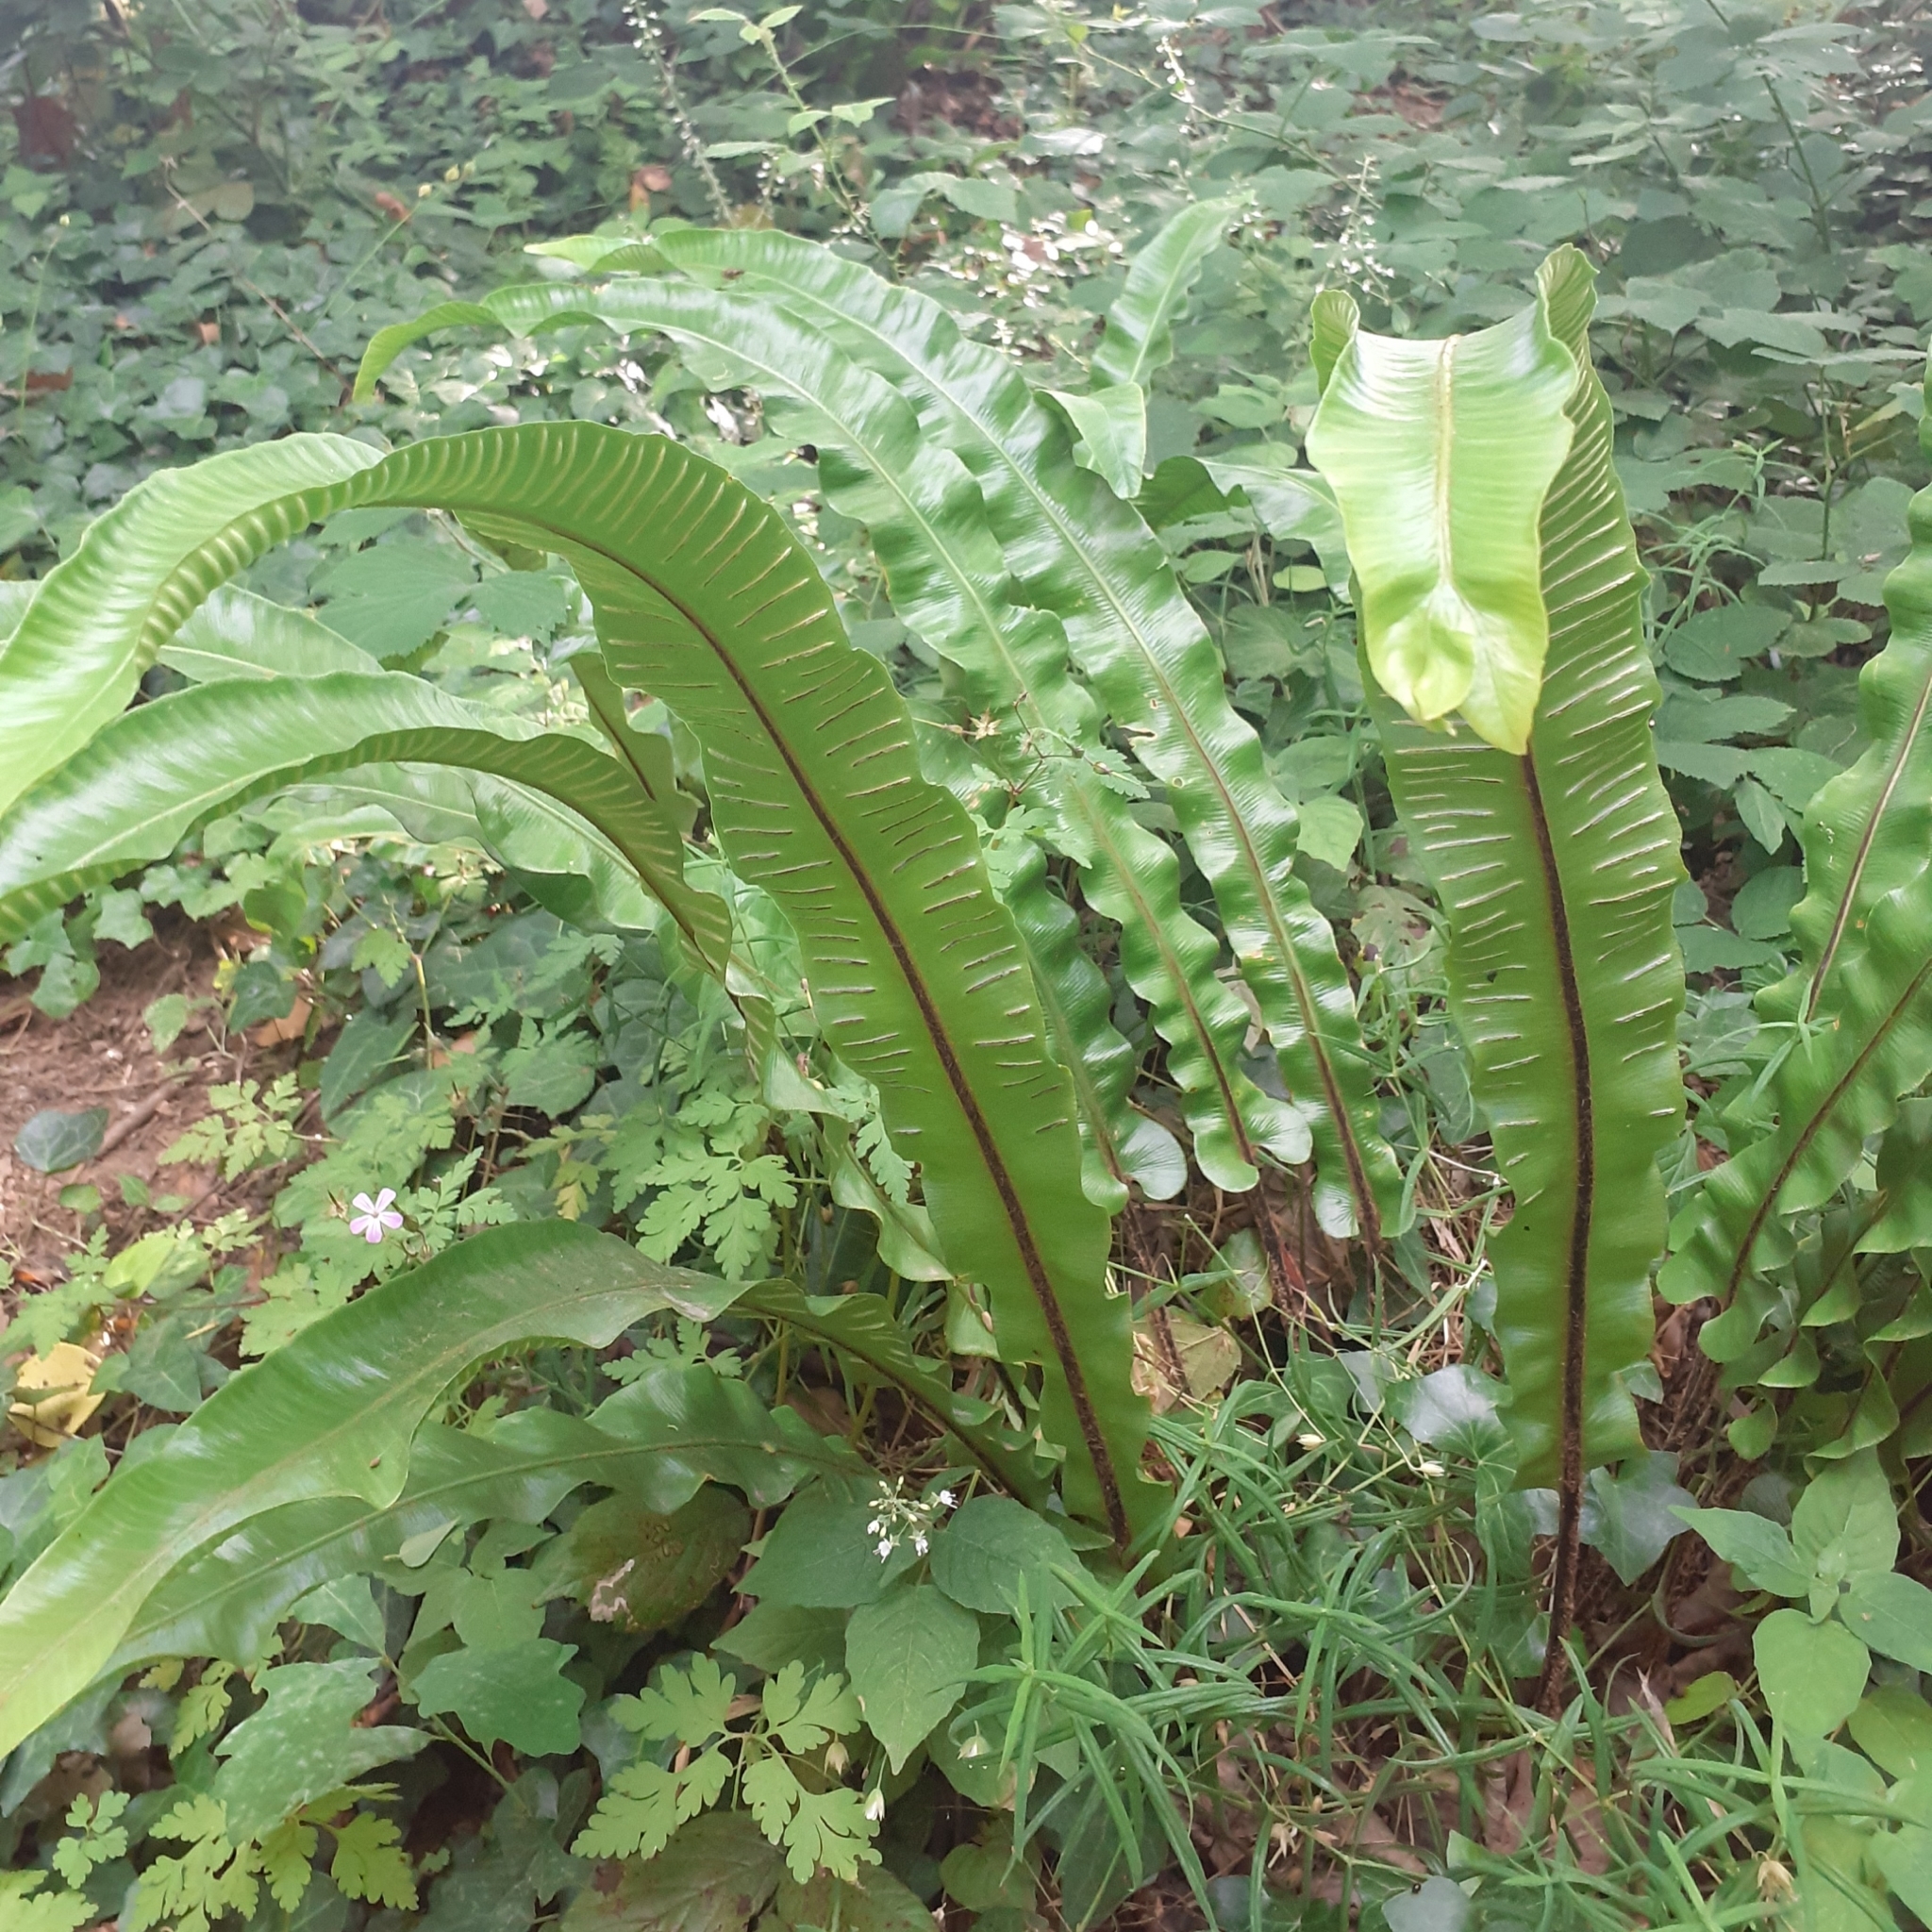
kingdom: Plantae
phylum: Tracheophyta
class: Polypodiopsida
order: Polypodiales
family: Aspleniaceae
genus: Asplenium
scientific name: Asplenium scolopendrium
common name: Hart's-tongue fern
